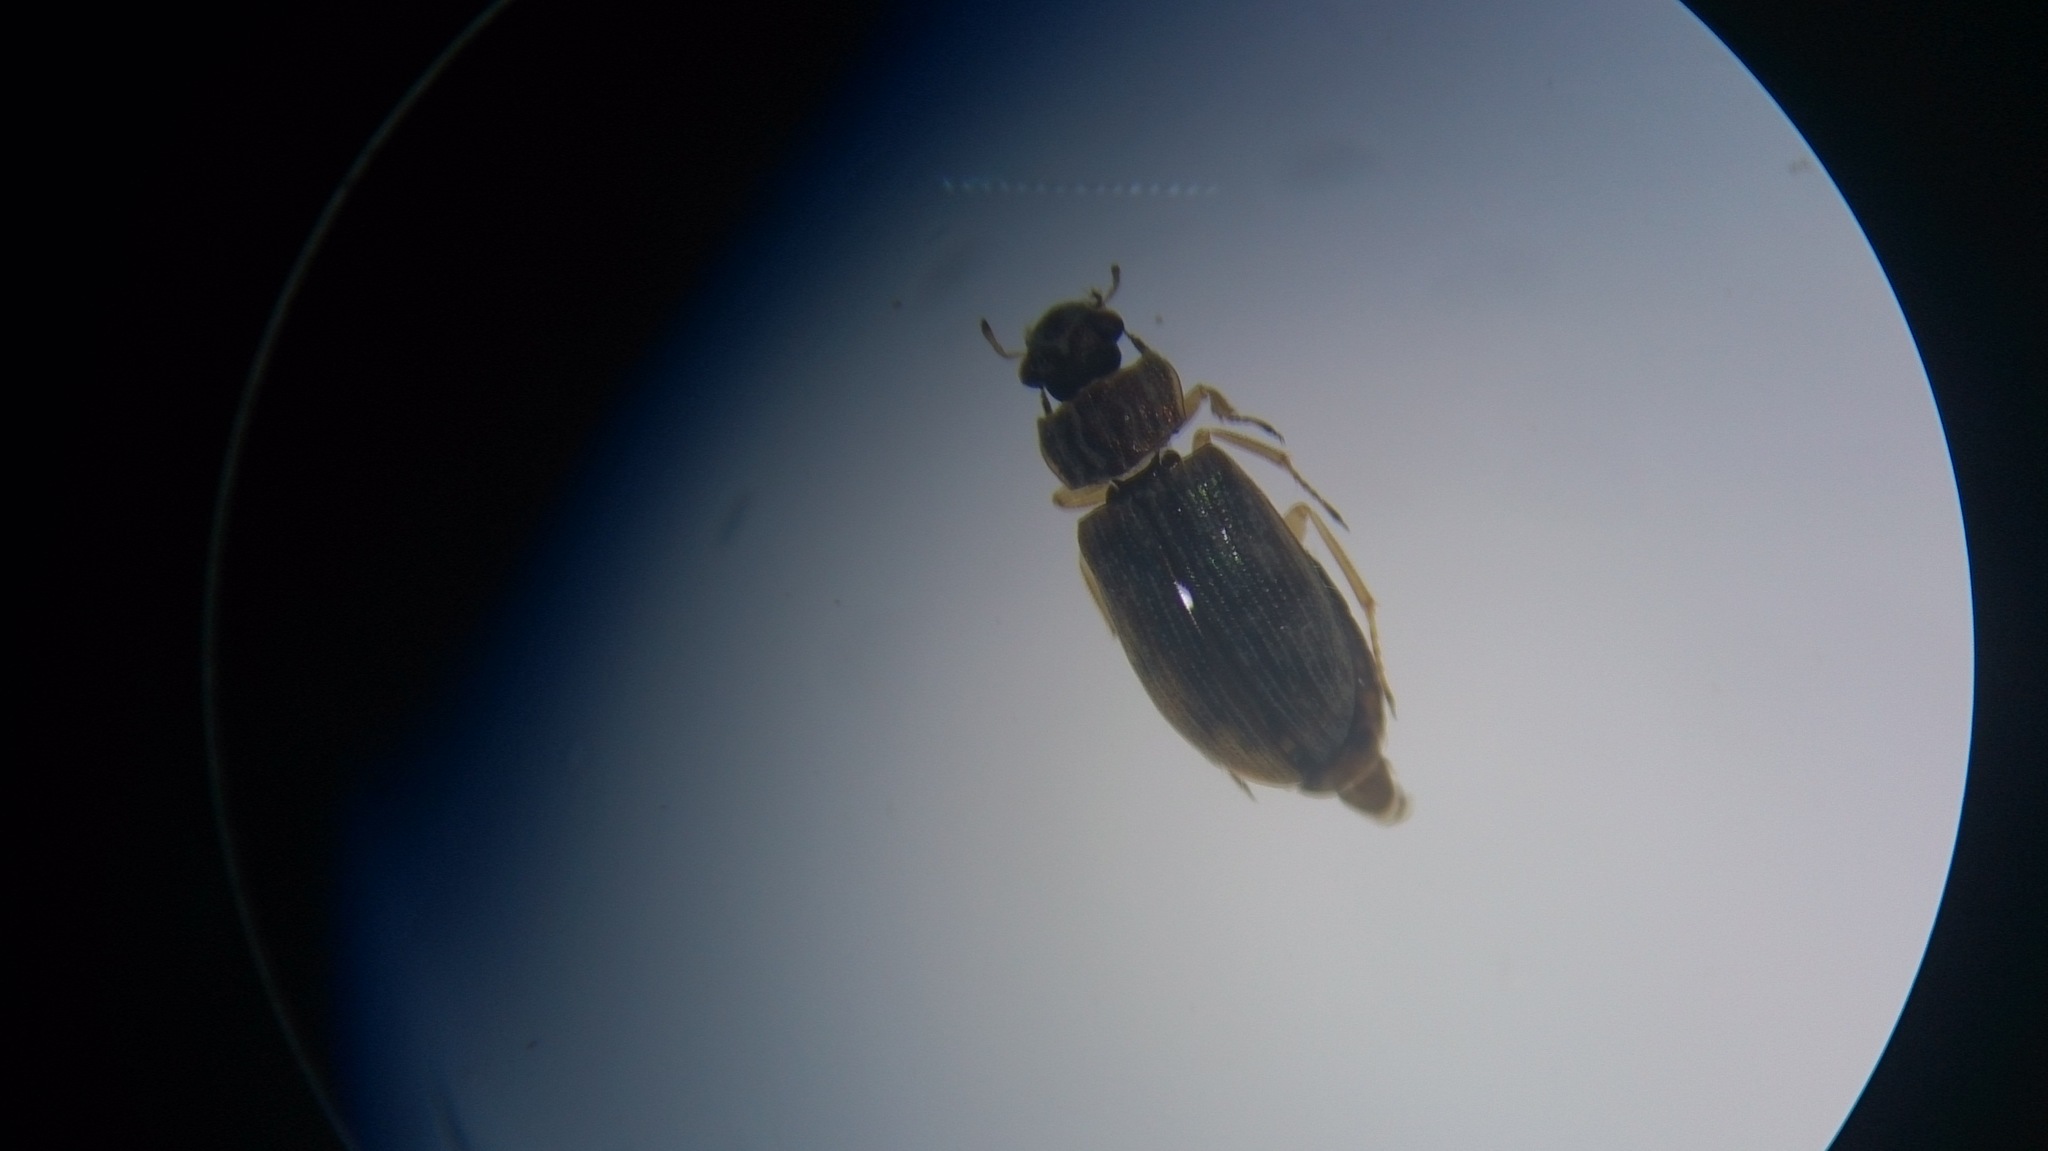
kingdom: Animalia
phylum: Arthropoda
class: Insecta
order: Coleoptera
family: Helophoridae
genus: Helophorus
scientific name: Helophorus
